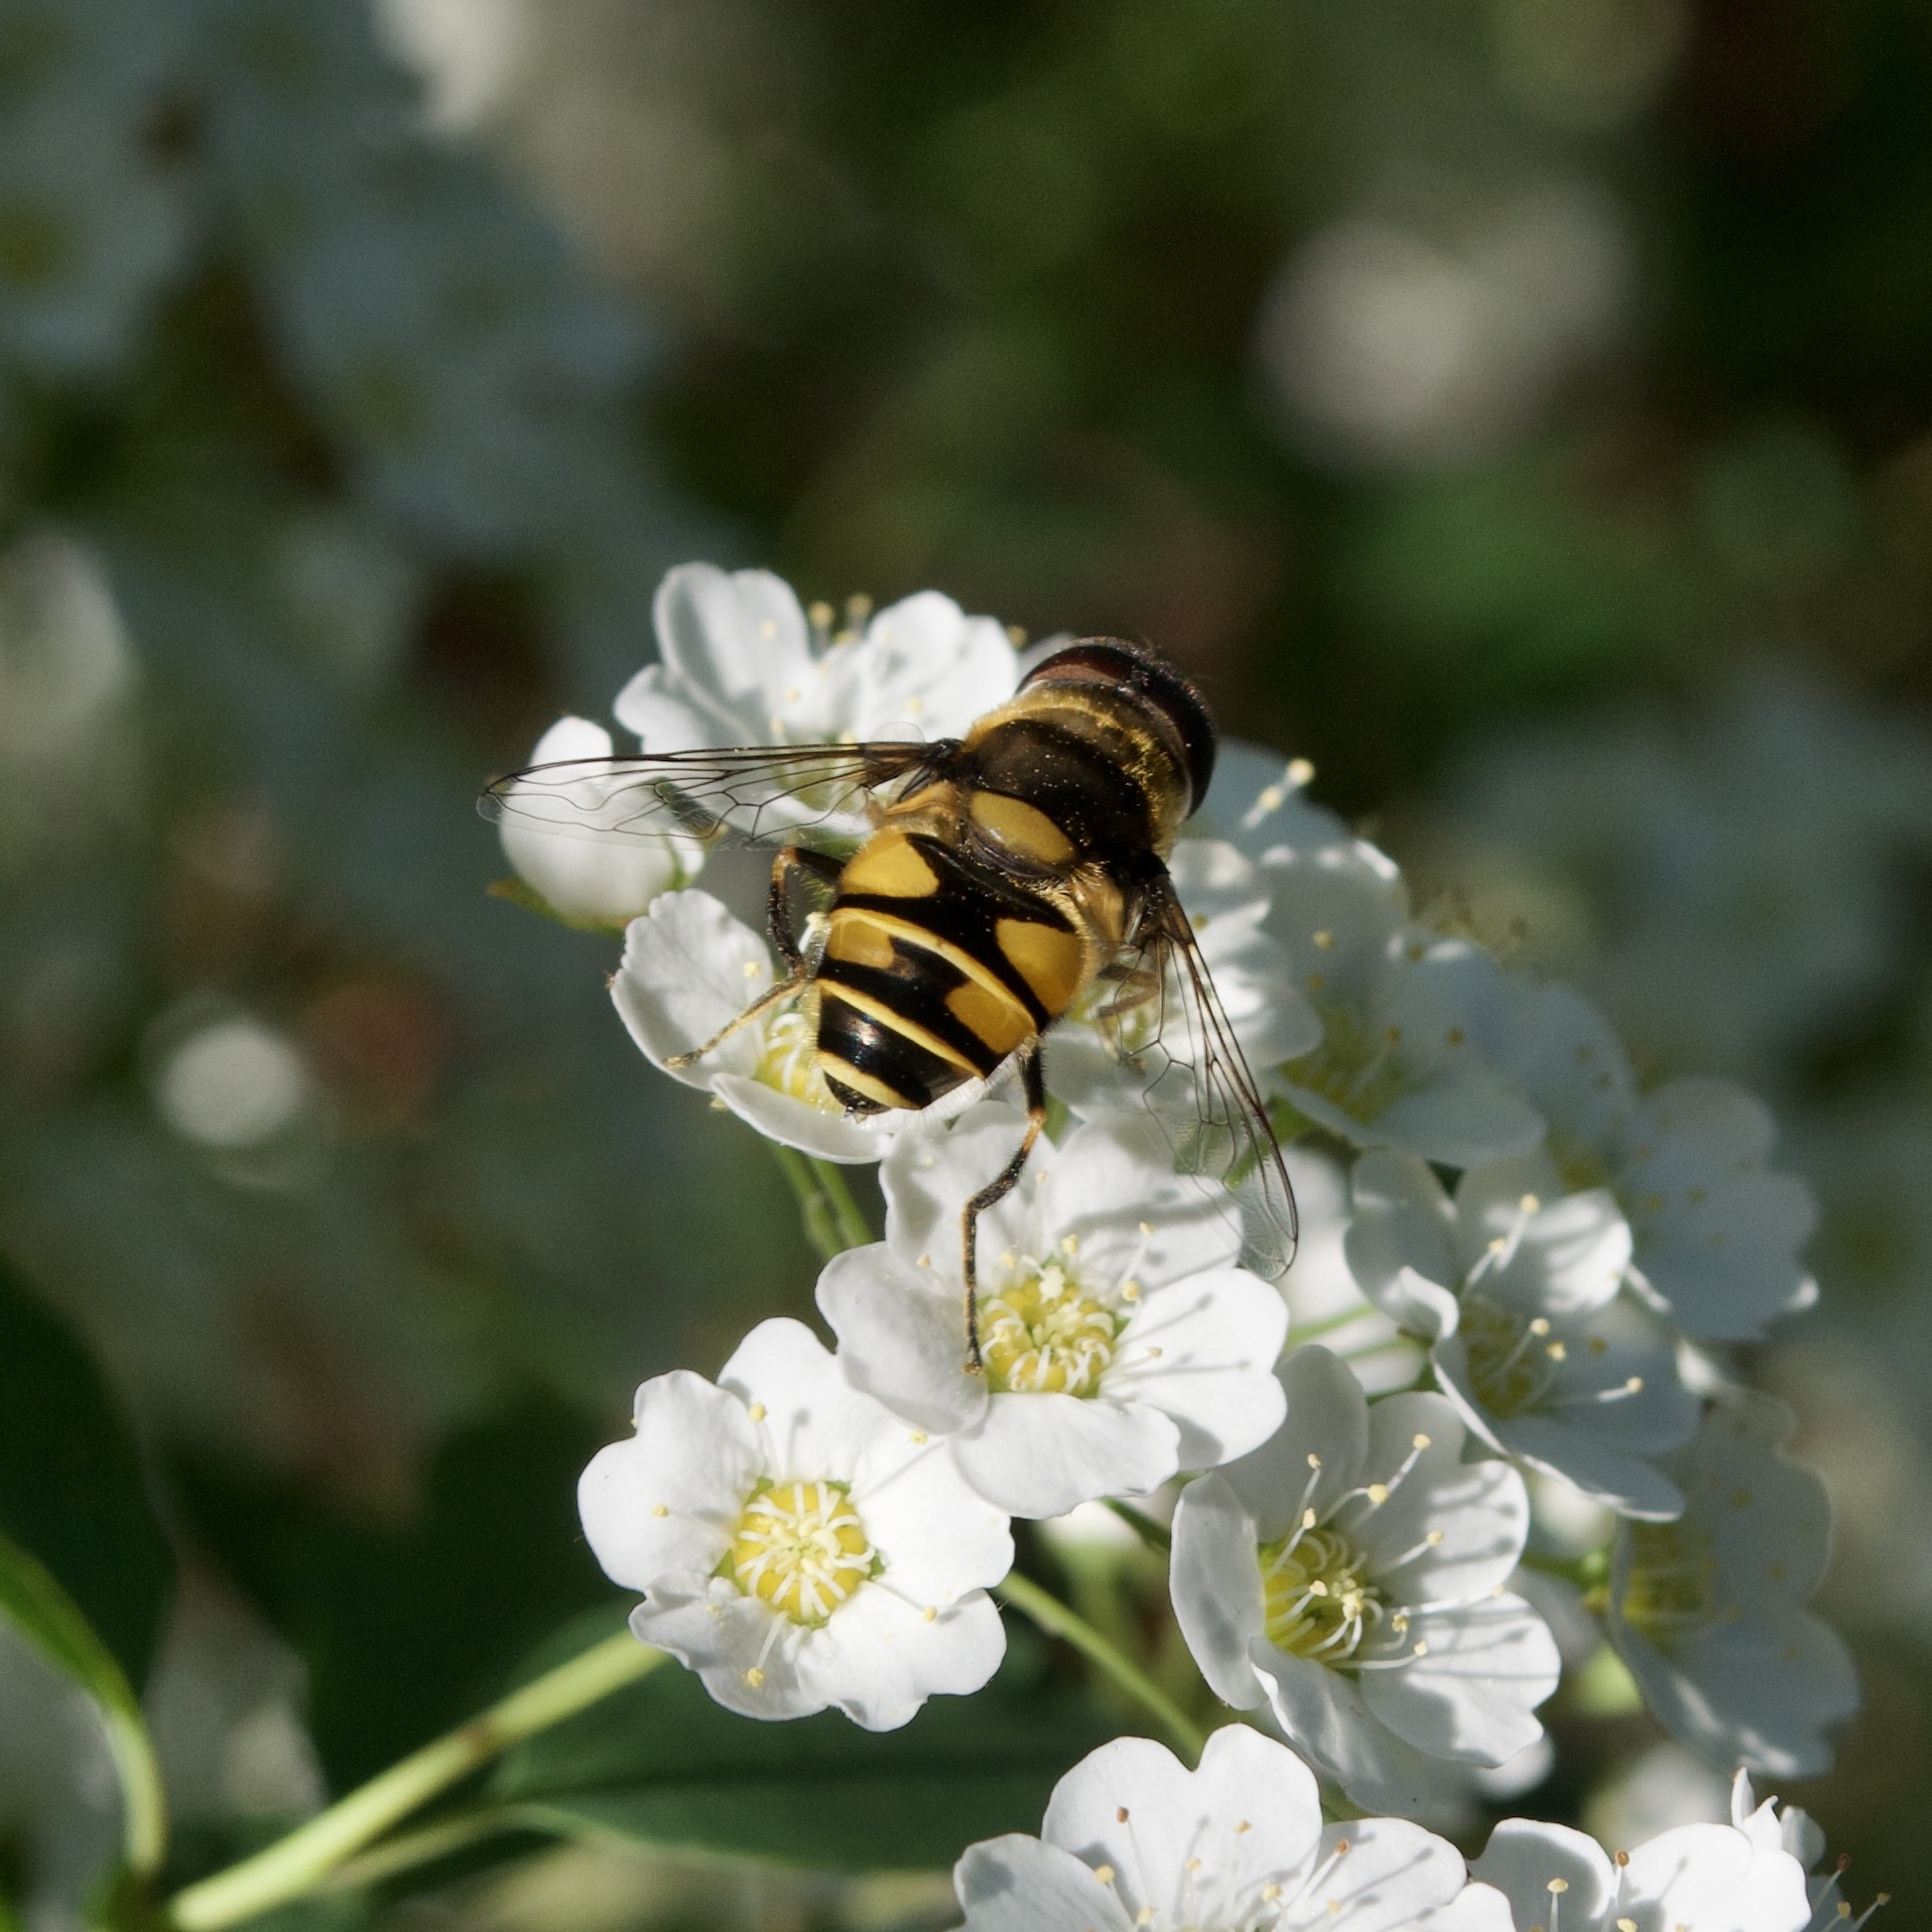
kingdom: Animalia
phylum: Arthropoda
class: Insecta
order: Diptera
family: Syrphidae
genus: Eristalis
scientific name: Eristalis transversa
